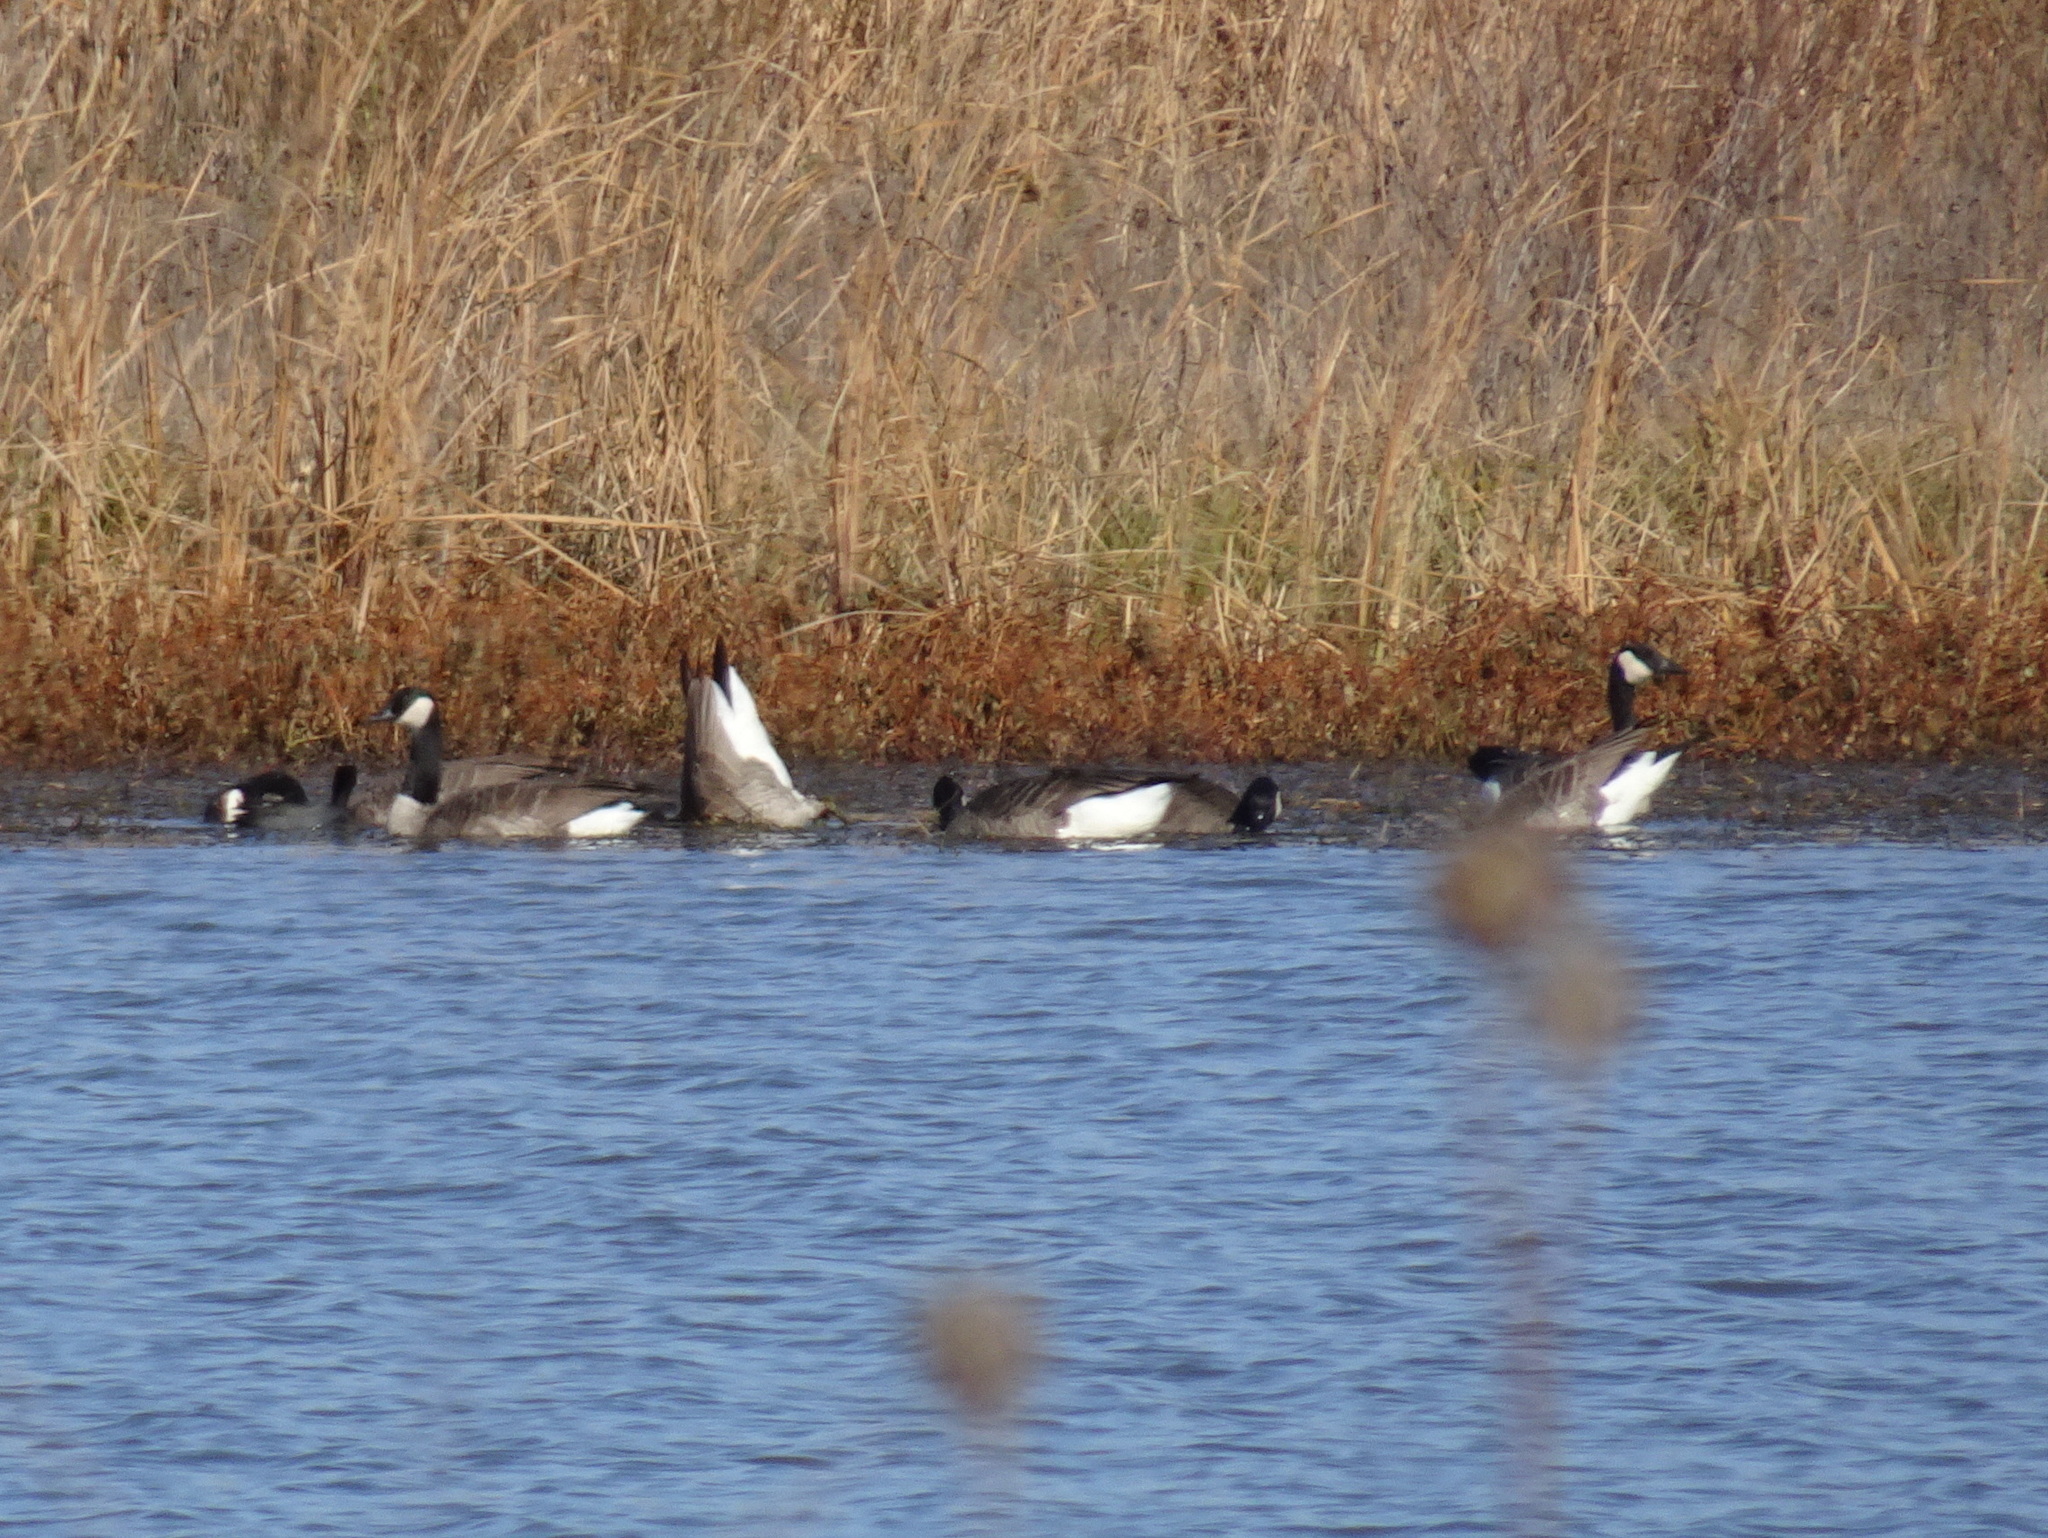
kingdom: Animalia
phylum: Chordata
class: Aves
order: Anseriformes
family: Anatidae
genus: Branta
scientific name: Branta canadensis
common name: Canada goose
